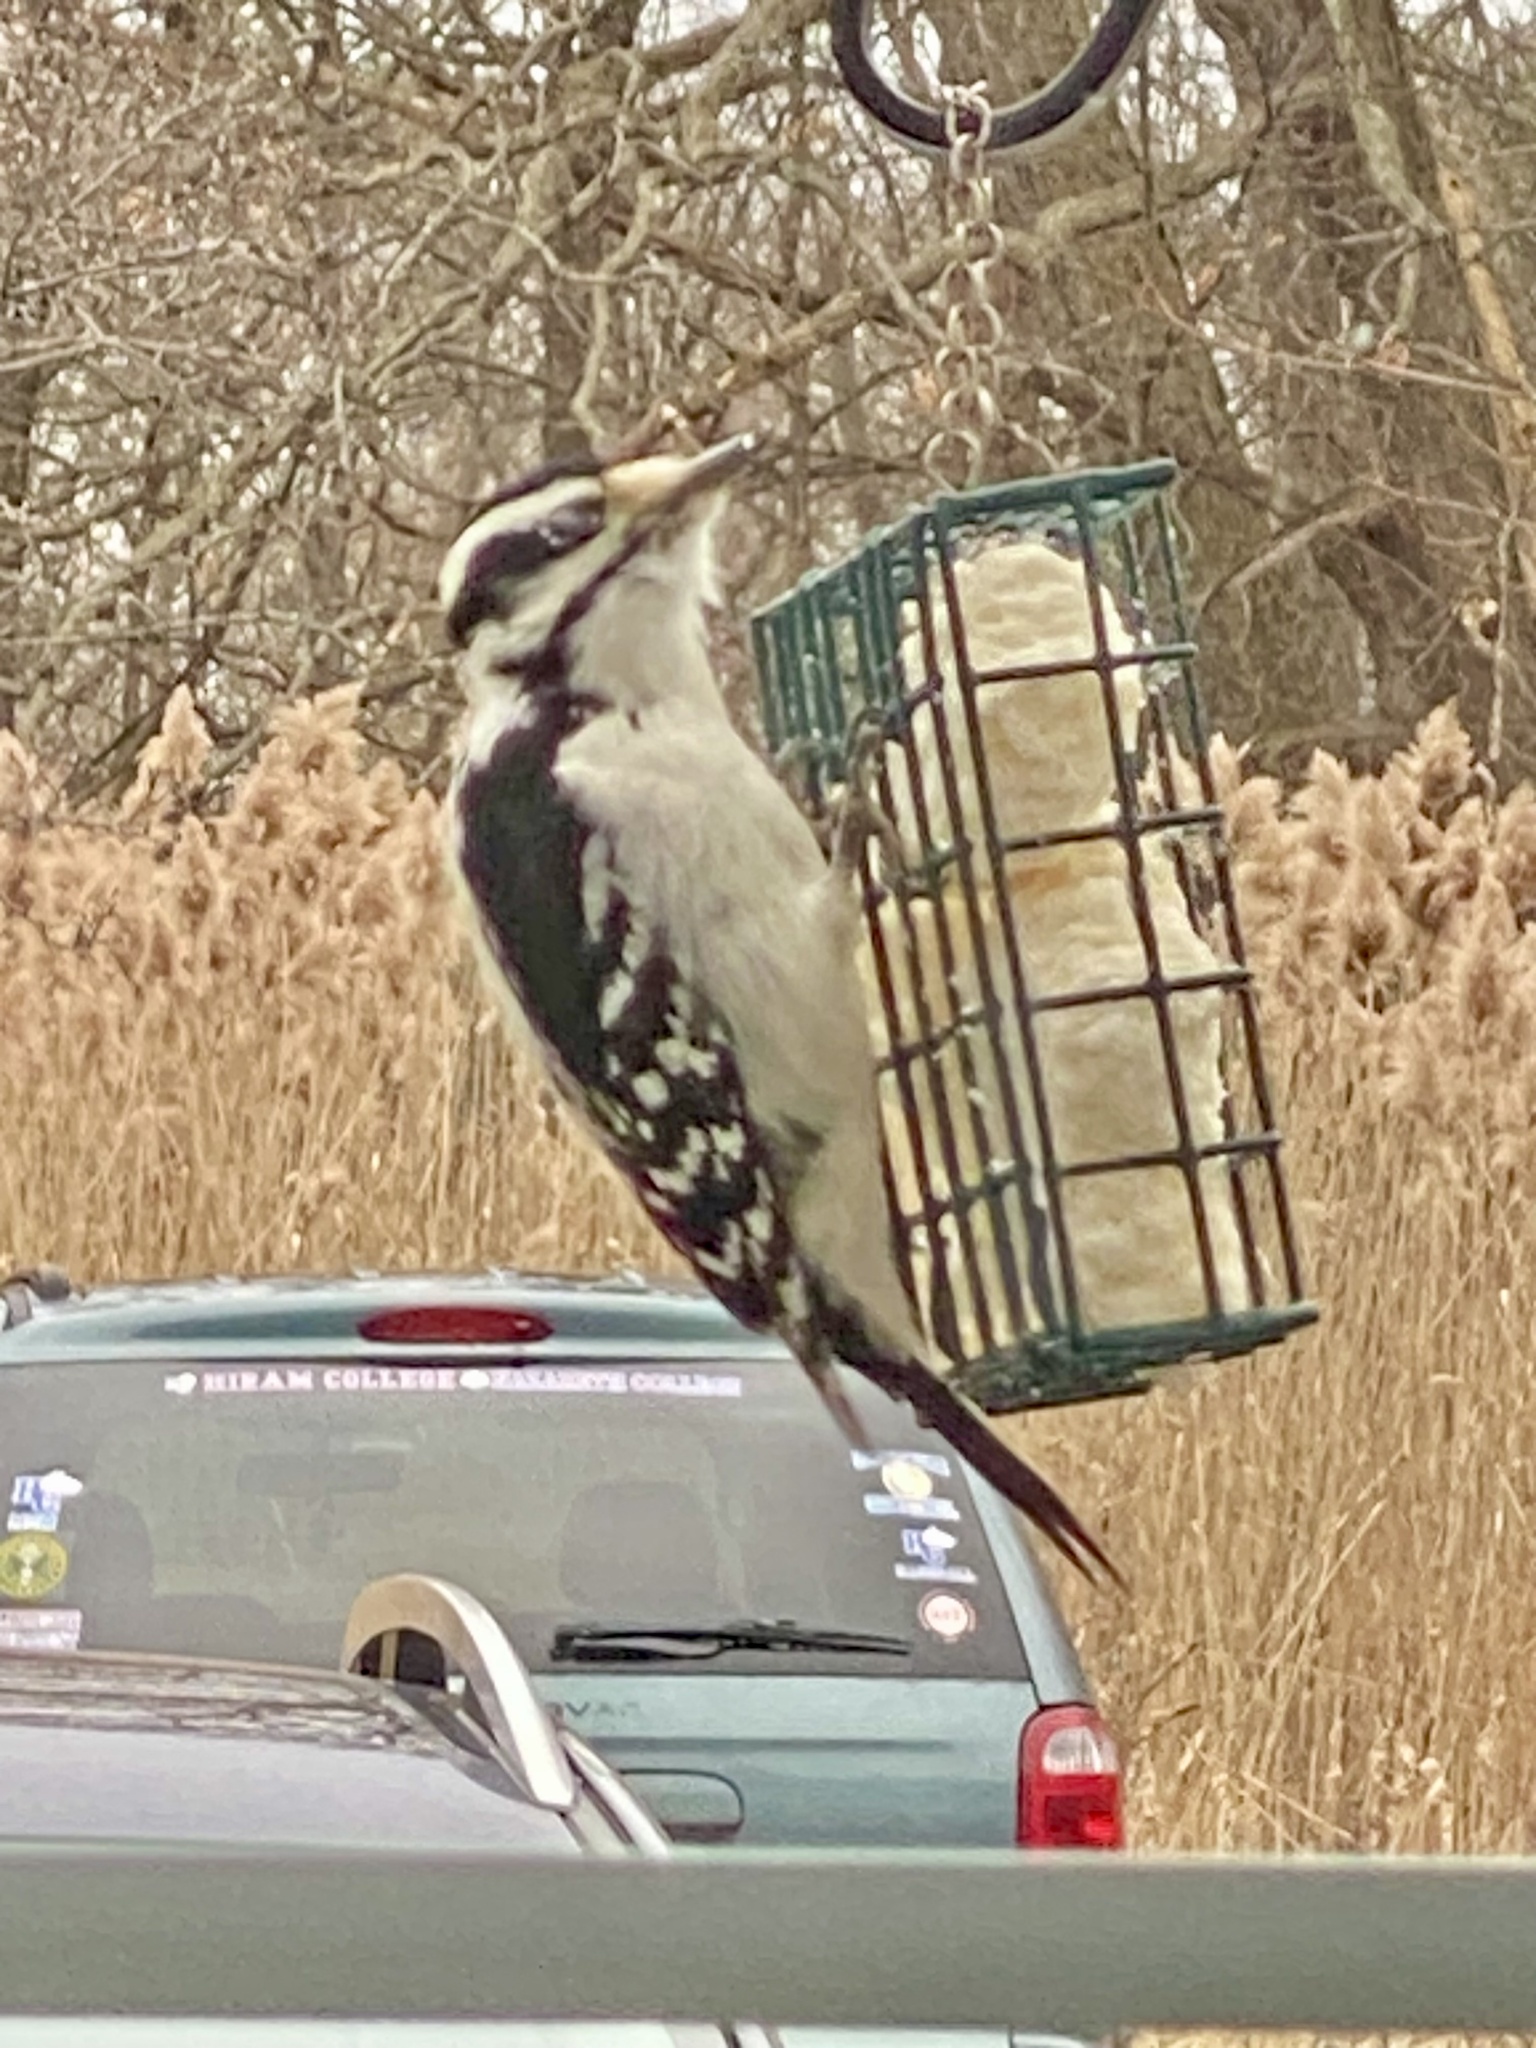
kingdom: Animalia
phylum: Chordata
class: Aves
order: Piciformes
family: Picidae
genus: Dryobates
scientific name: Dryobates pubescens
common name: Downy woodpecker
